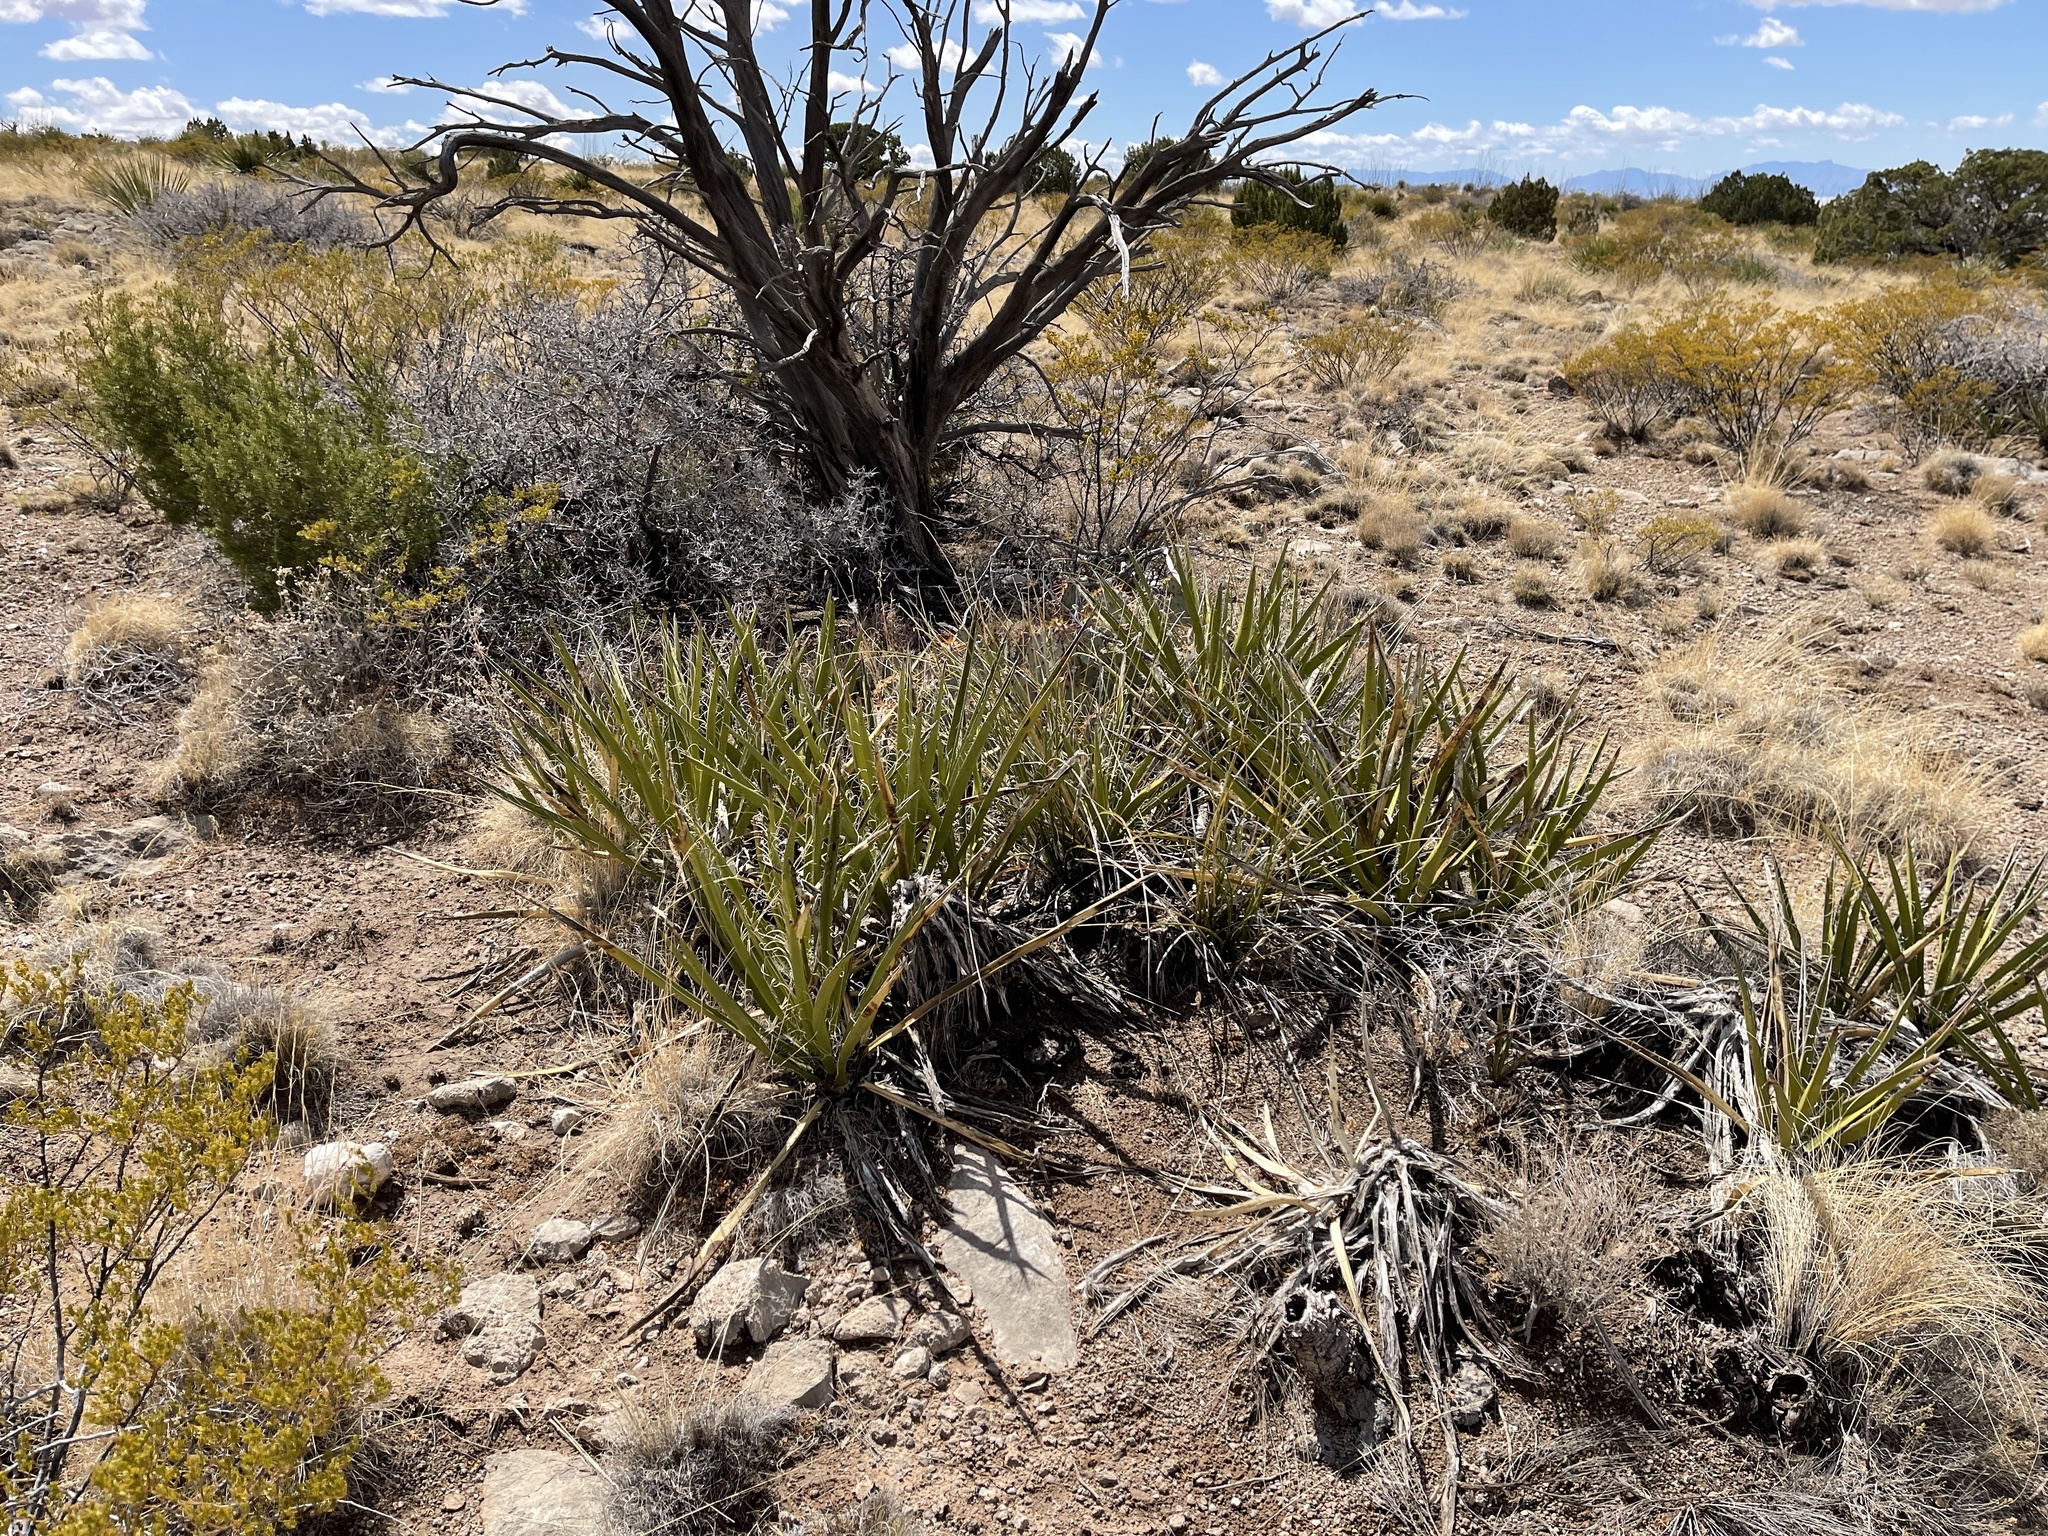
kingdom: Plantae
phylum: Tracheophyta
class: Liliopsida
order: Asparagales
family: Asparagaceae
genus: Yucca
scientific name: Yucca baccata
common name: Banana yucca
